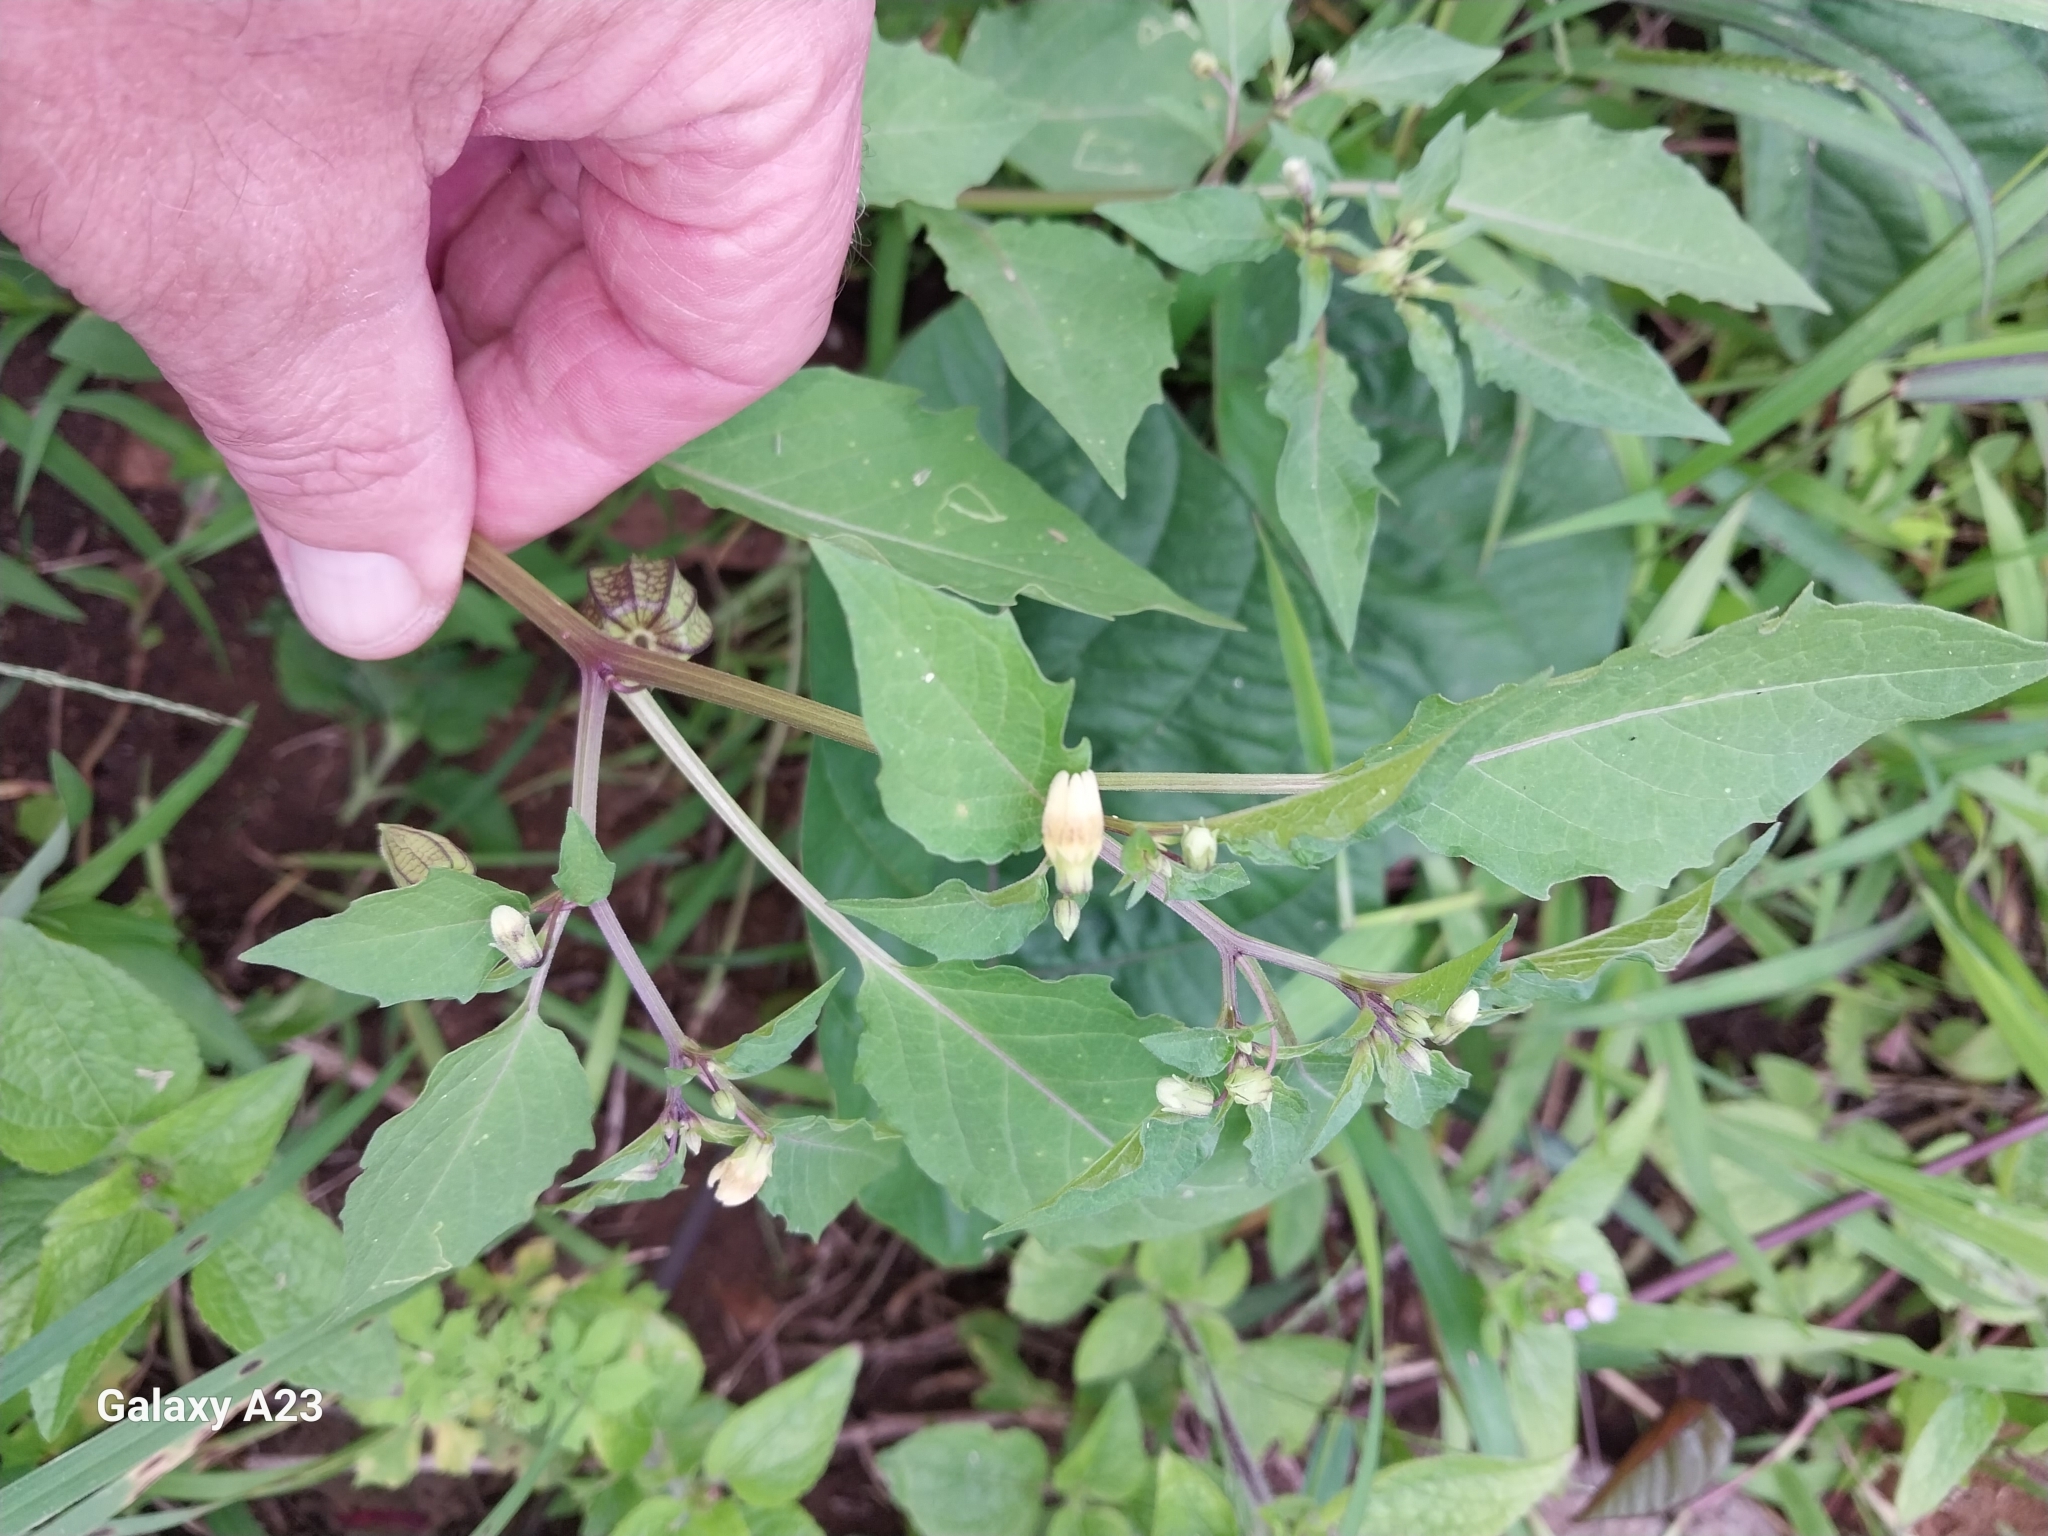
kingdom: Plantae
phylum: Tracheophyta
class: Magnoliopsida
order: Solanales
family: Solanaceae
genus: Physalis
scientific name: Physalis angulata
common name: Angular winter-cherry
